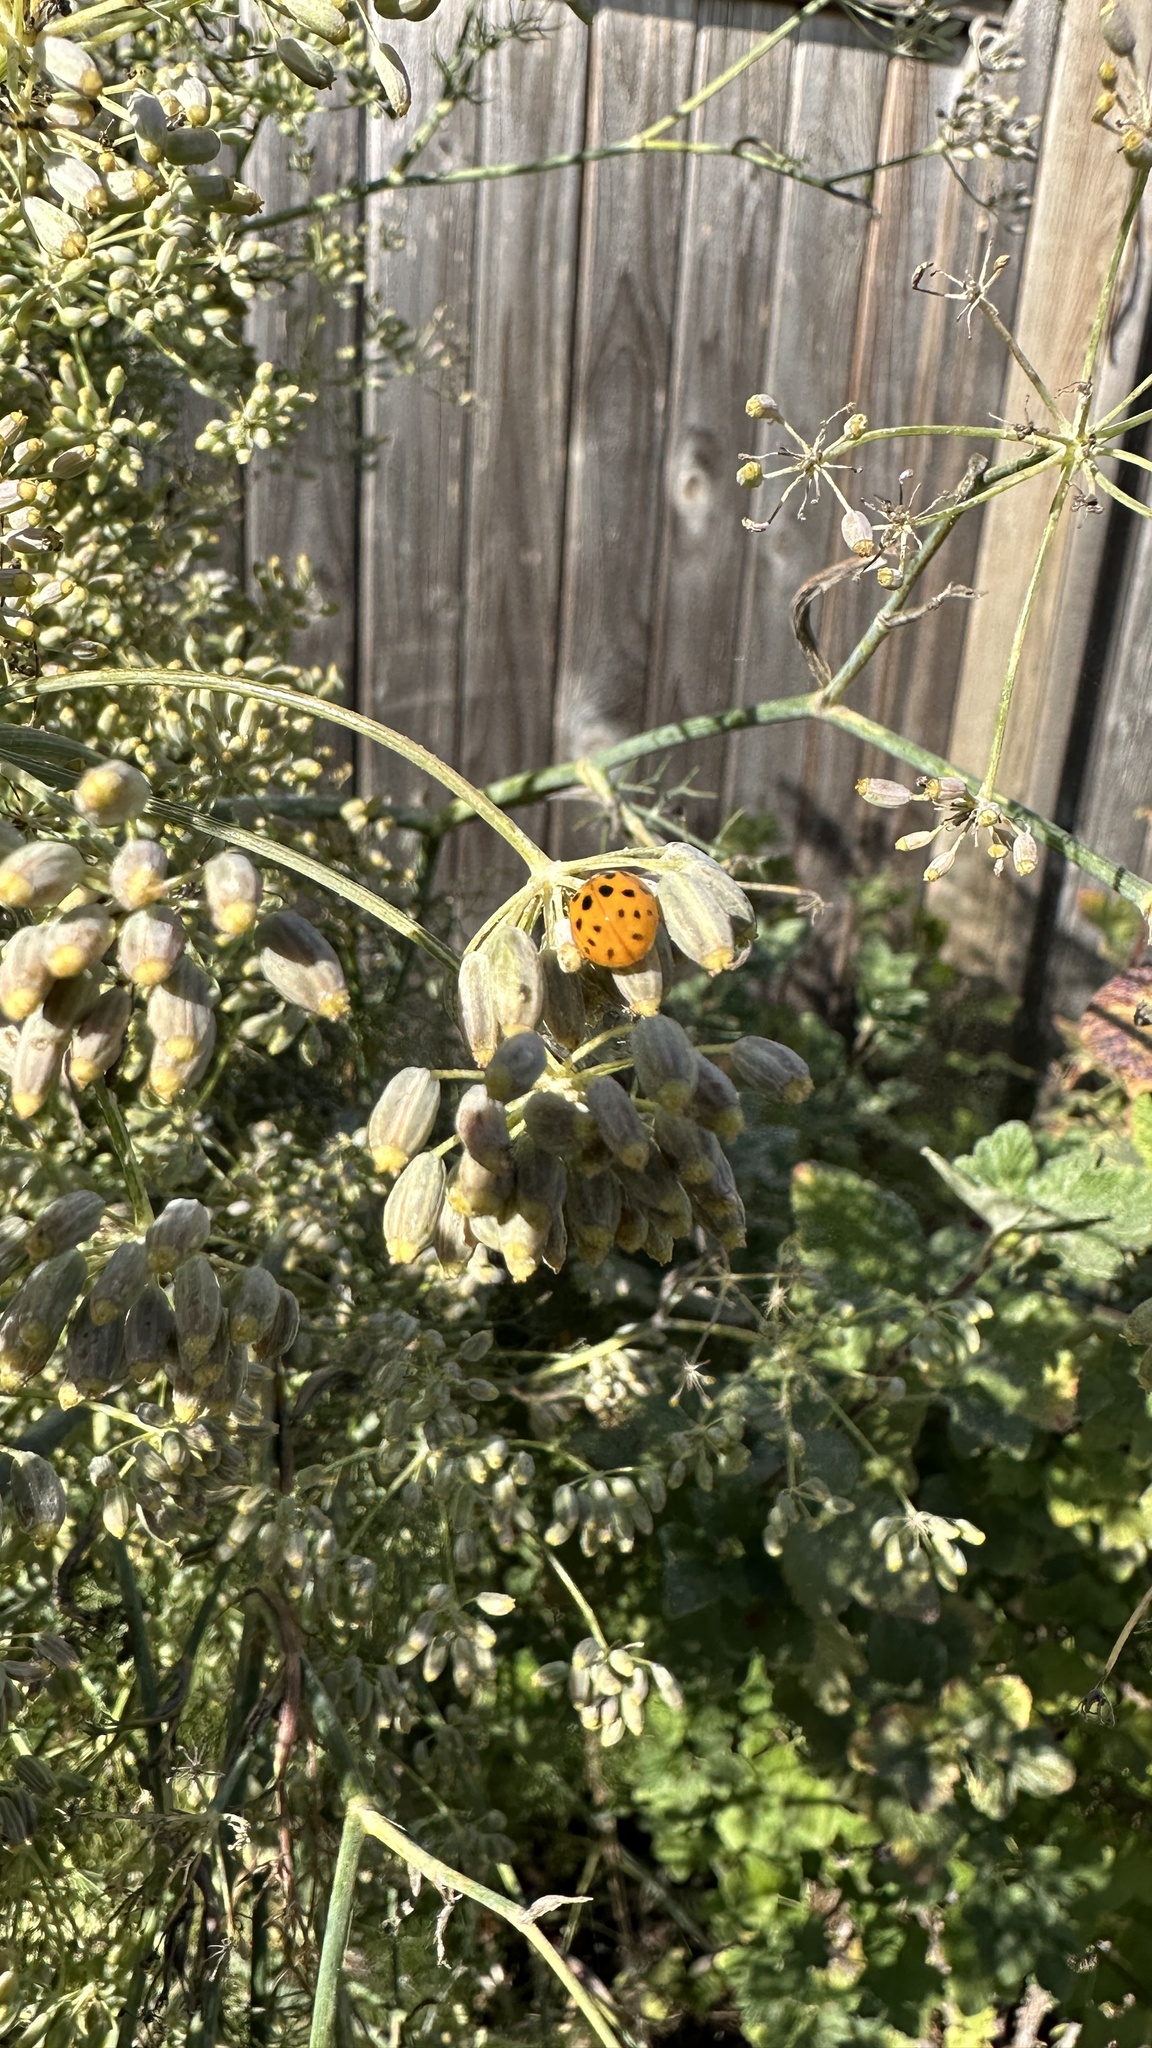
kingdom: Animalia
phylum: Arthropoda
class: Insecta
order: Coleoptera
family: Coccinellidae
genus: Harmonia
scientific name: Harmonia axyridis
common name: Harlequin ladybird
